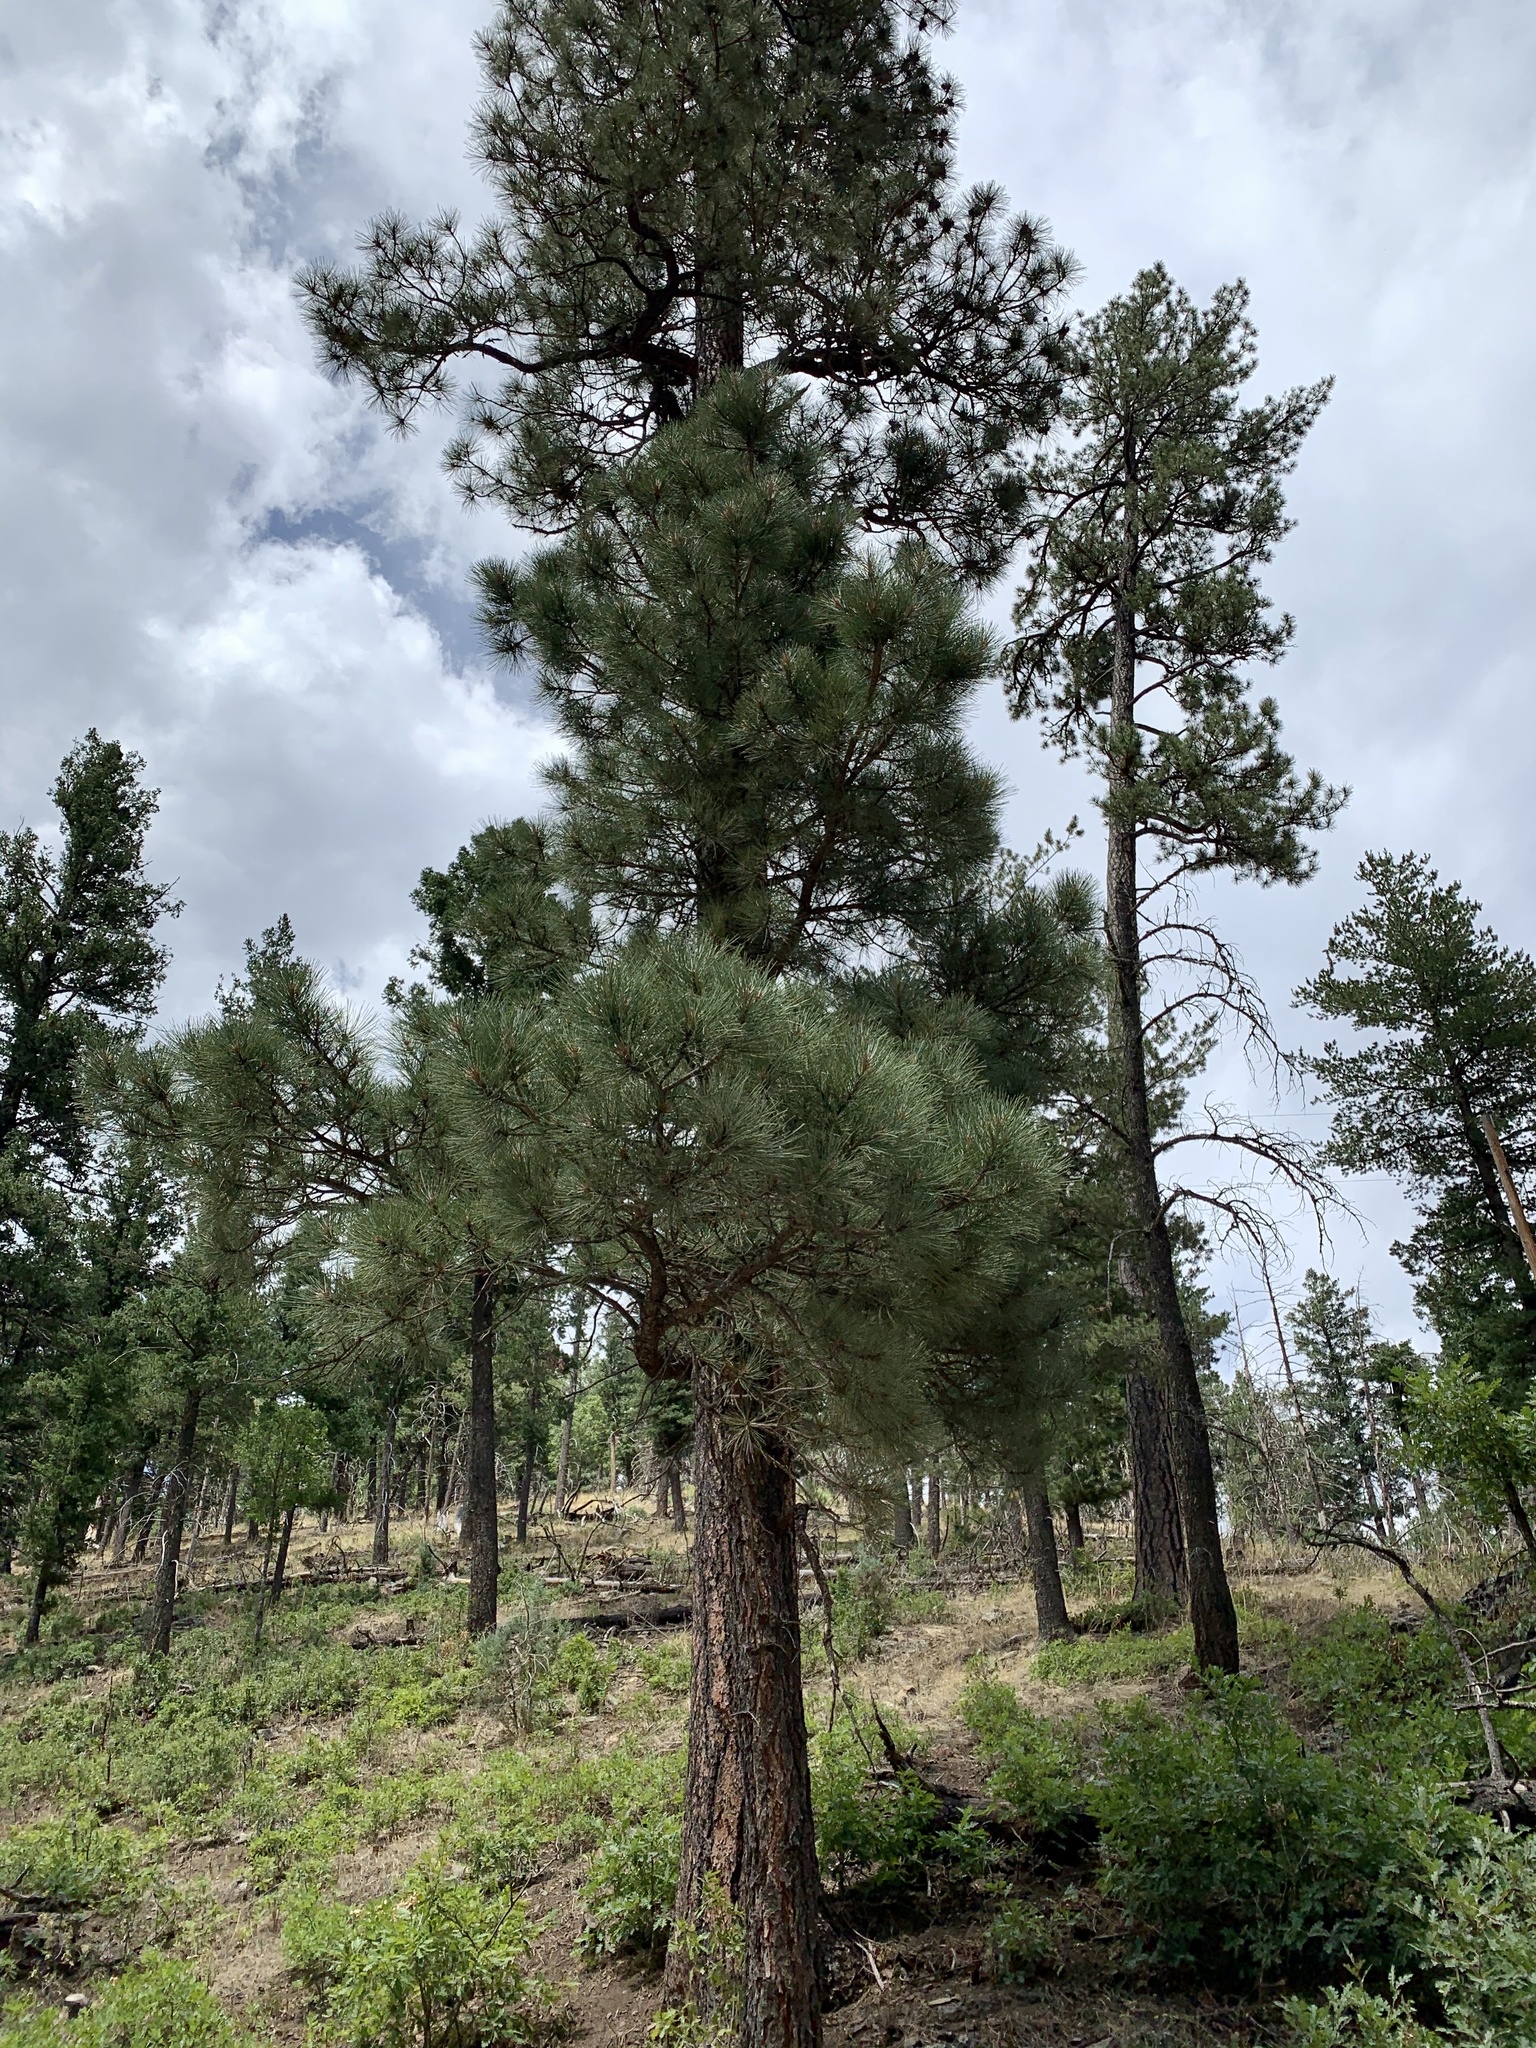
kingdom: Plantae
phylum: Tracheophyta
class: Pinopsida
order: Pinales
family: Pinaceae
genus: Pinus
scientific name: Pinus ponderosa
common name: Western yellow-pine
